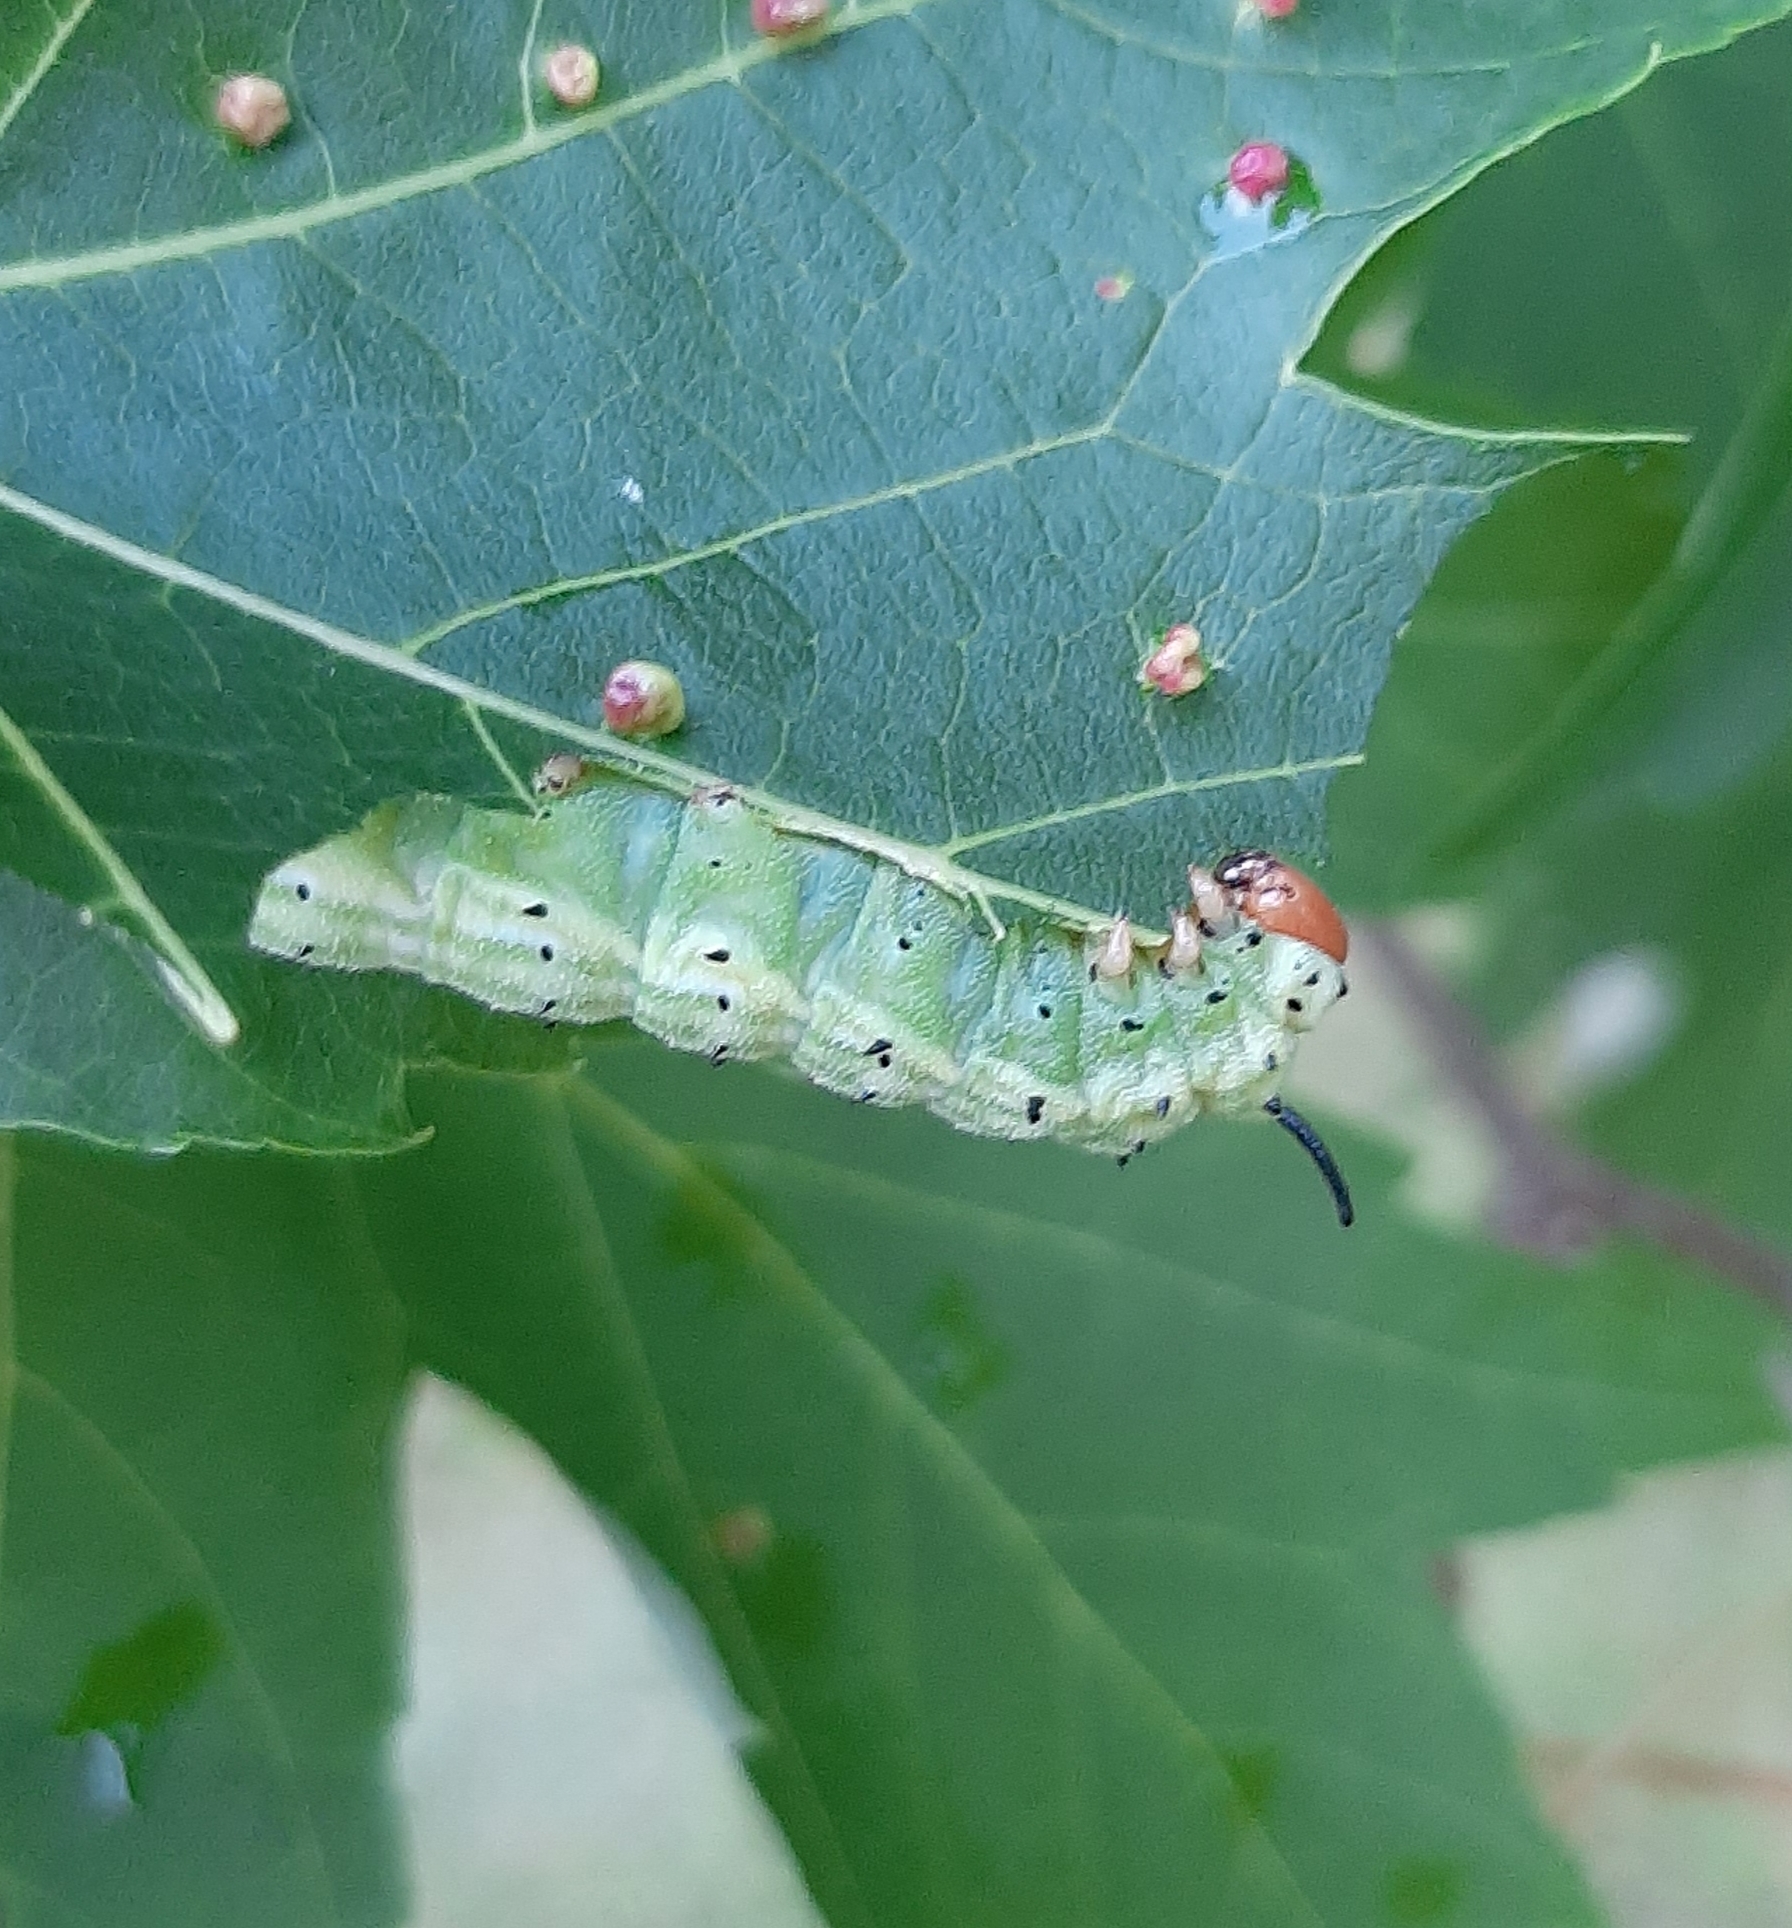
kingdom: Animalia
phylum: Arthropoda
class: Insecta
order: Lepidoptera
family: Saturniidae
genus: Dryocampa
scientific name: Dryocampa rubicunda
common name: Rosy maple moth
